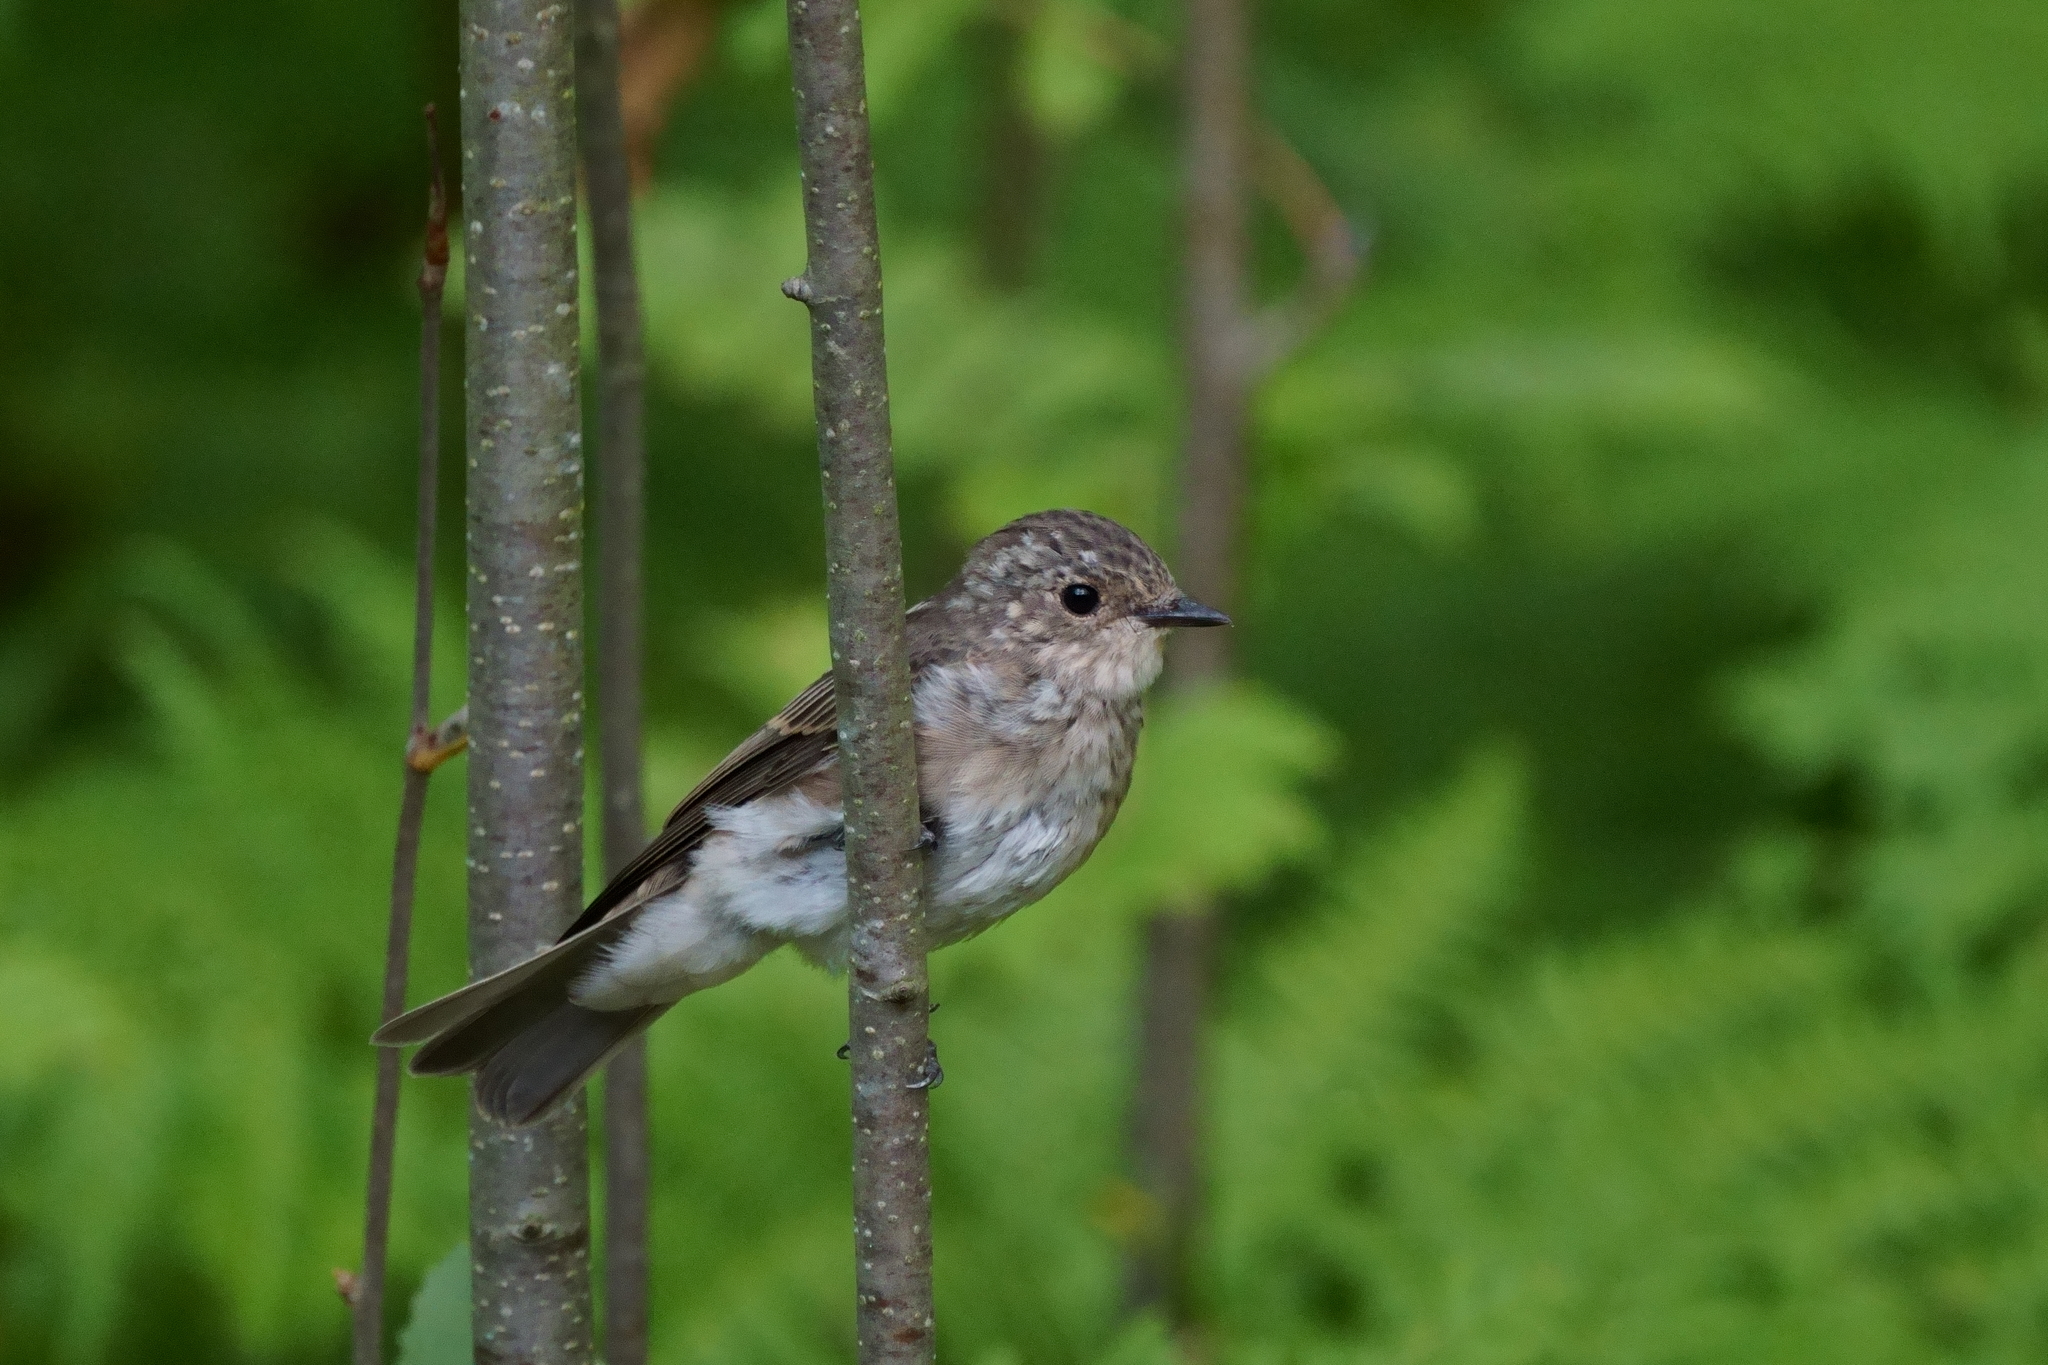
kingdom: Animalia
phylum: Chordata
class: Aves
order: Passeriformes
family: Muscicapidae
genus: Muscicapa
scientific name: Muscicapa striata
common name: Spotted flycatcher
